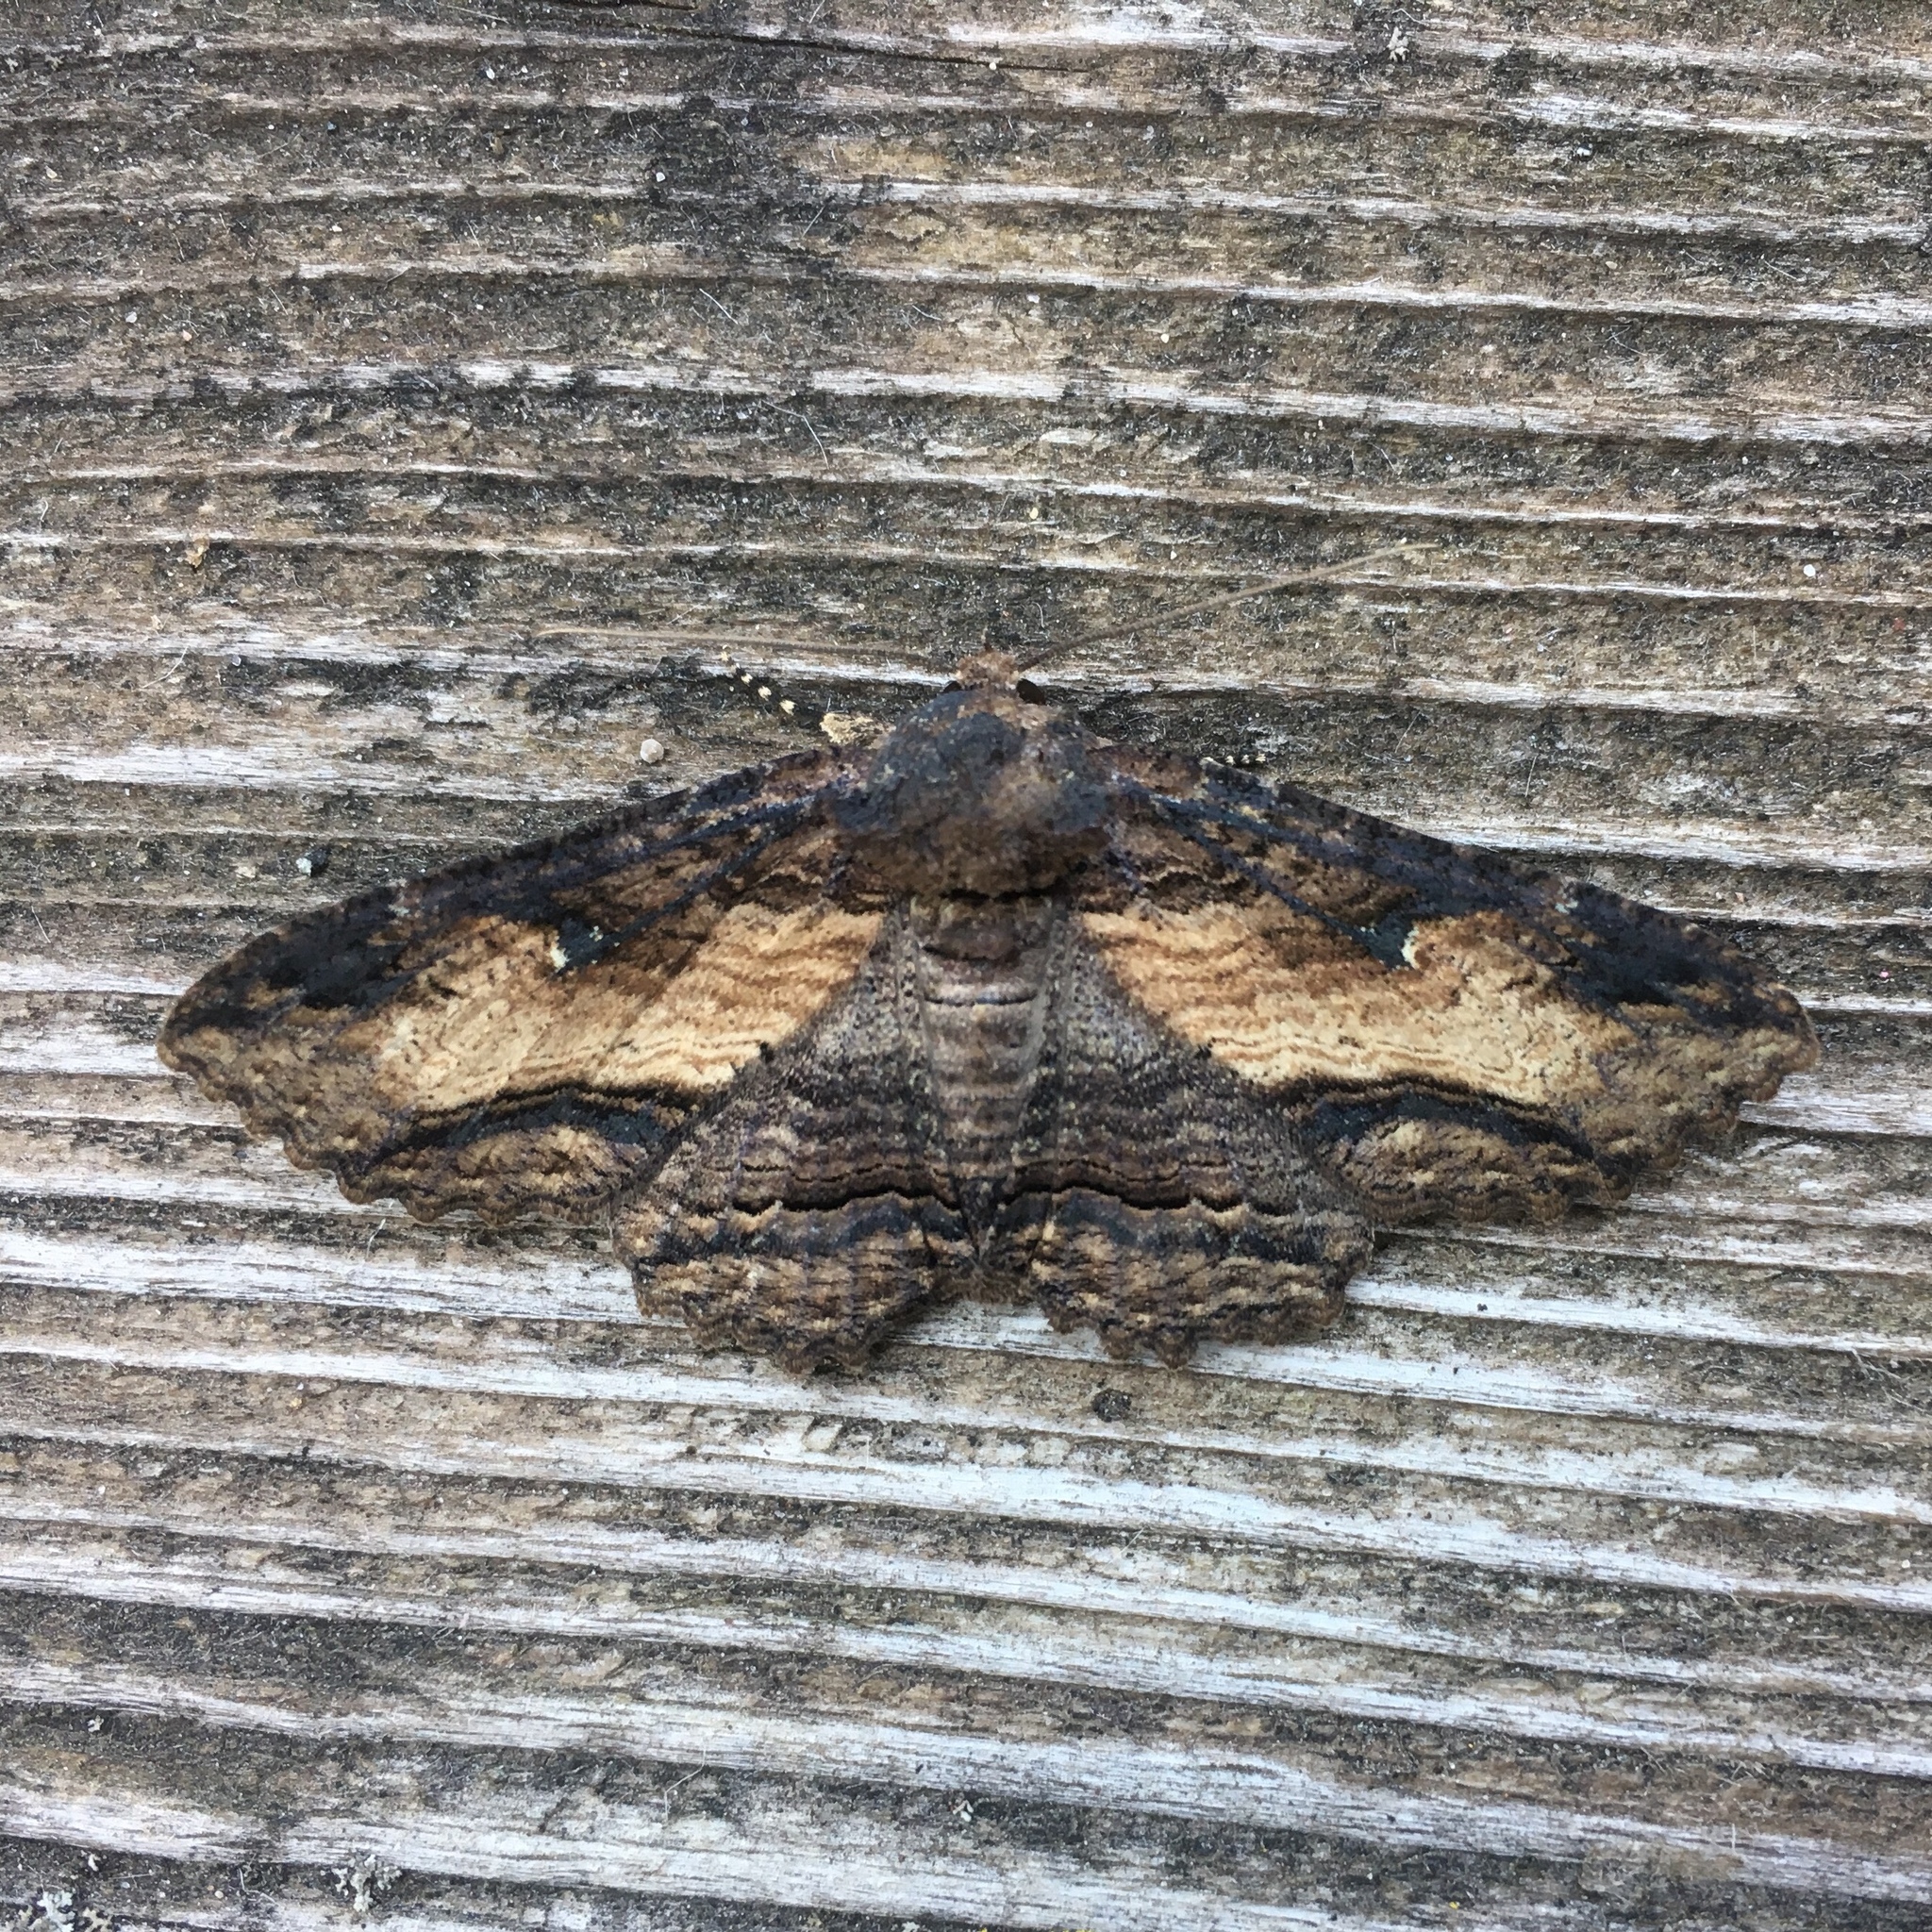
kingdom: Animalia
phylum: Arthropoda
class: Insecta
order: Lepidoptera
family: Erebidae
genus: Zale
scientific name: Zale lunata
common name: Lunate zale moth
